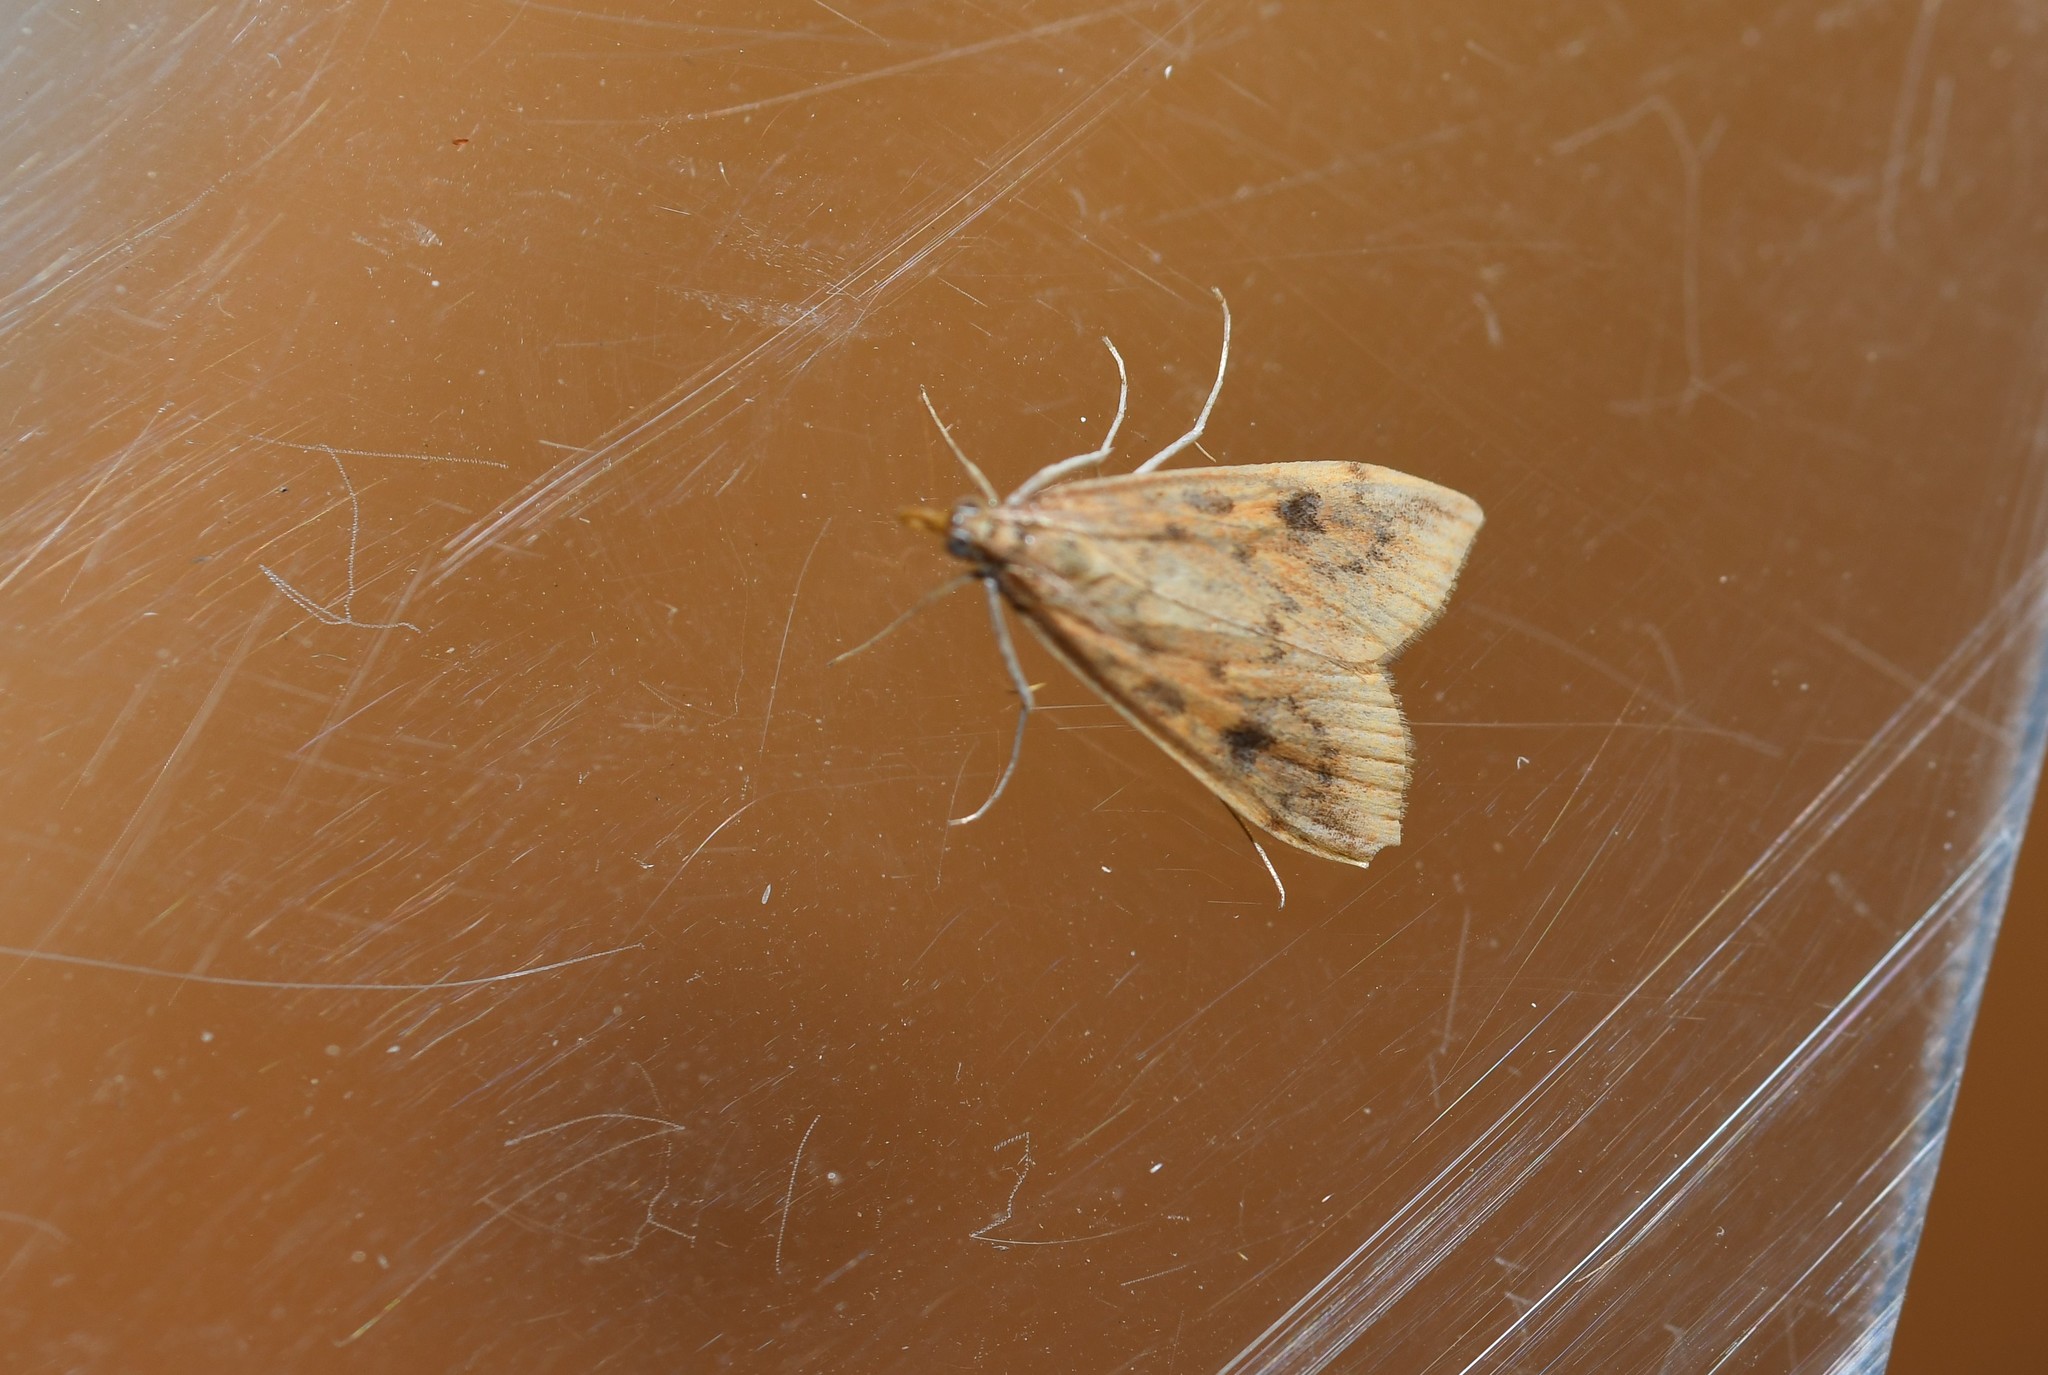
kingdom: Animalia
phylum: Arthropoda
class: Insecta
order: Lepidoptera
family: Crambidae
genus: Udea
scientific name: Udea ferrugalis
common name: Rusty dot
